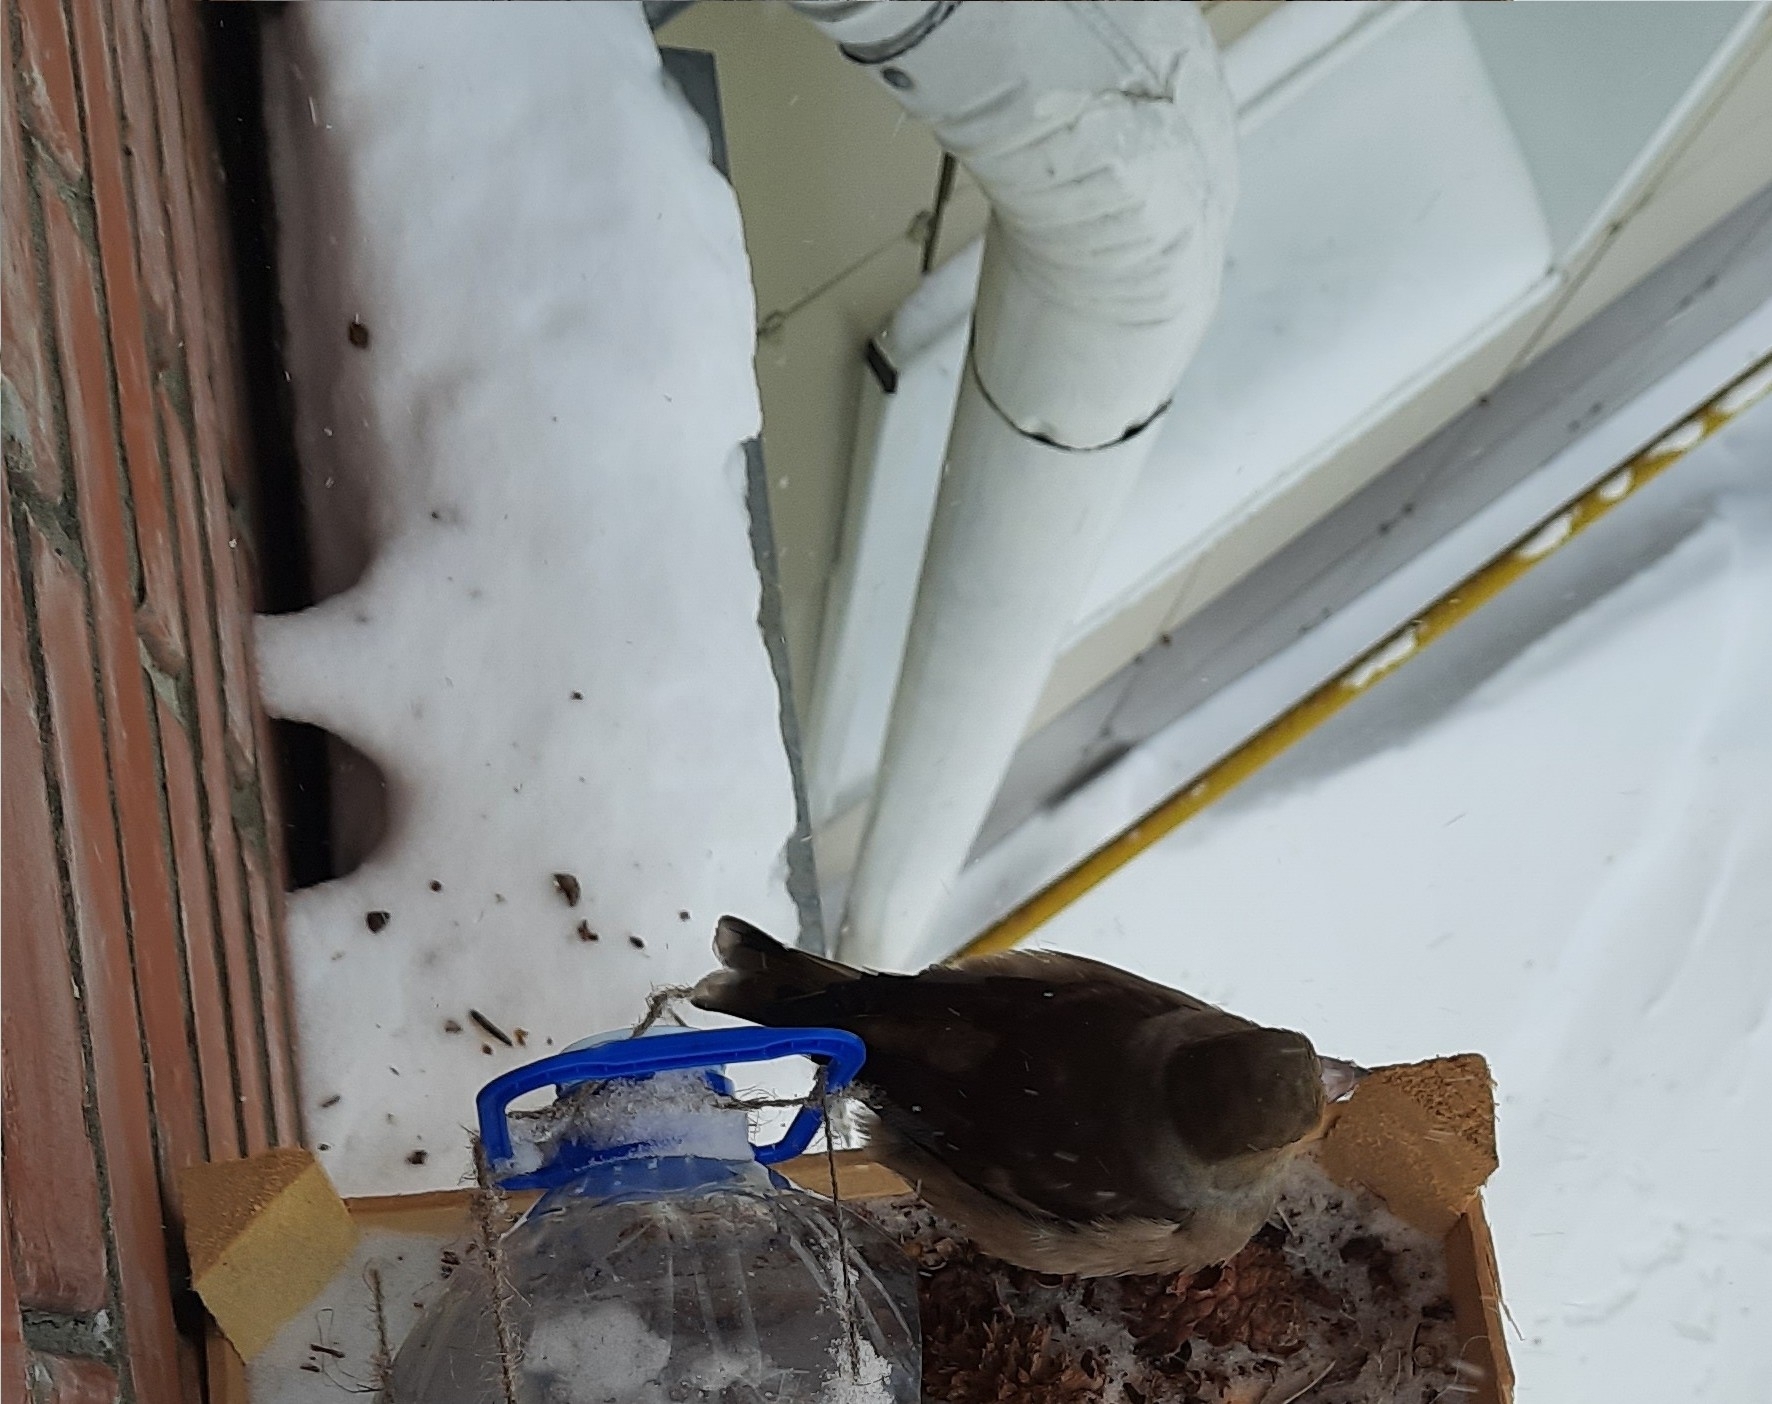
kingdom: Animalia
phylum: Chordata
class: Aves
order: Passeriformes
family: Fringillidae
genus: Coccothraustes
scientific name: Coccothraustes coccothraustes
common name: Hawfinch
